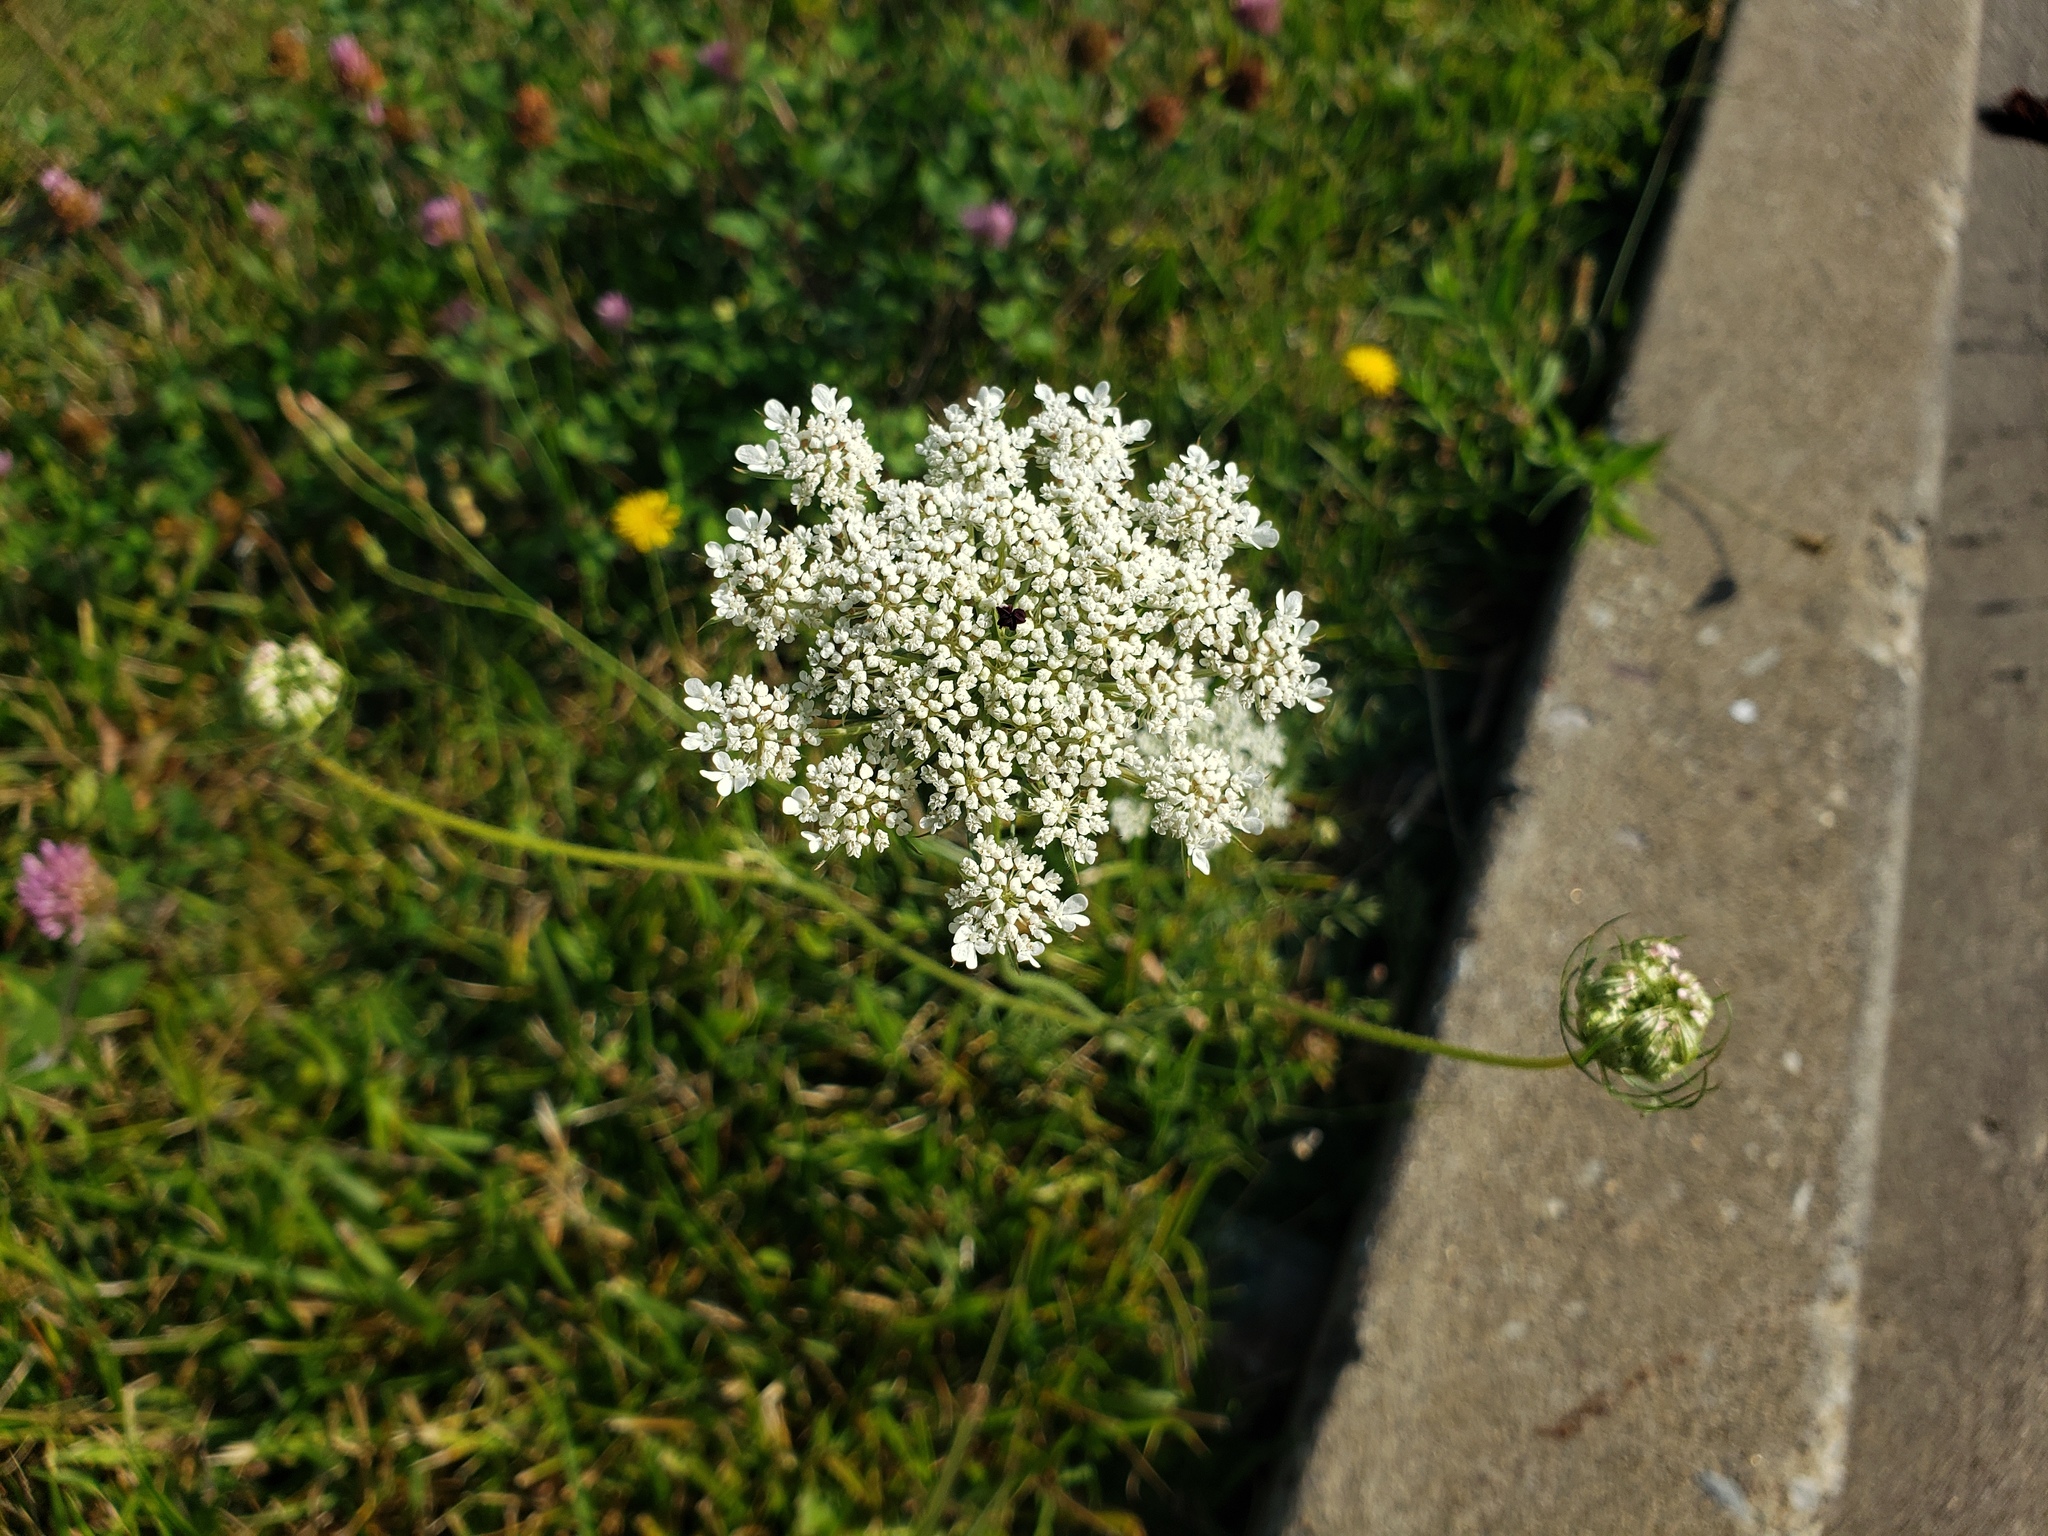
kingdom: Plantae
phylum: Tracheophyta
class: Magnoliopsida
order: Apiales
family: Apiaceae
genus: Daucus
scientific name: Daucus carota
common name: Wild carrot
